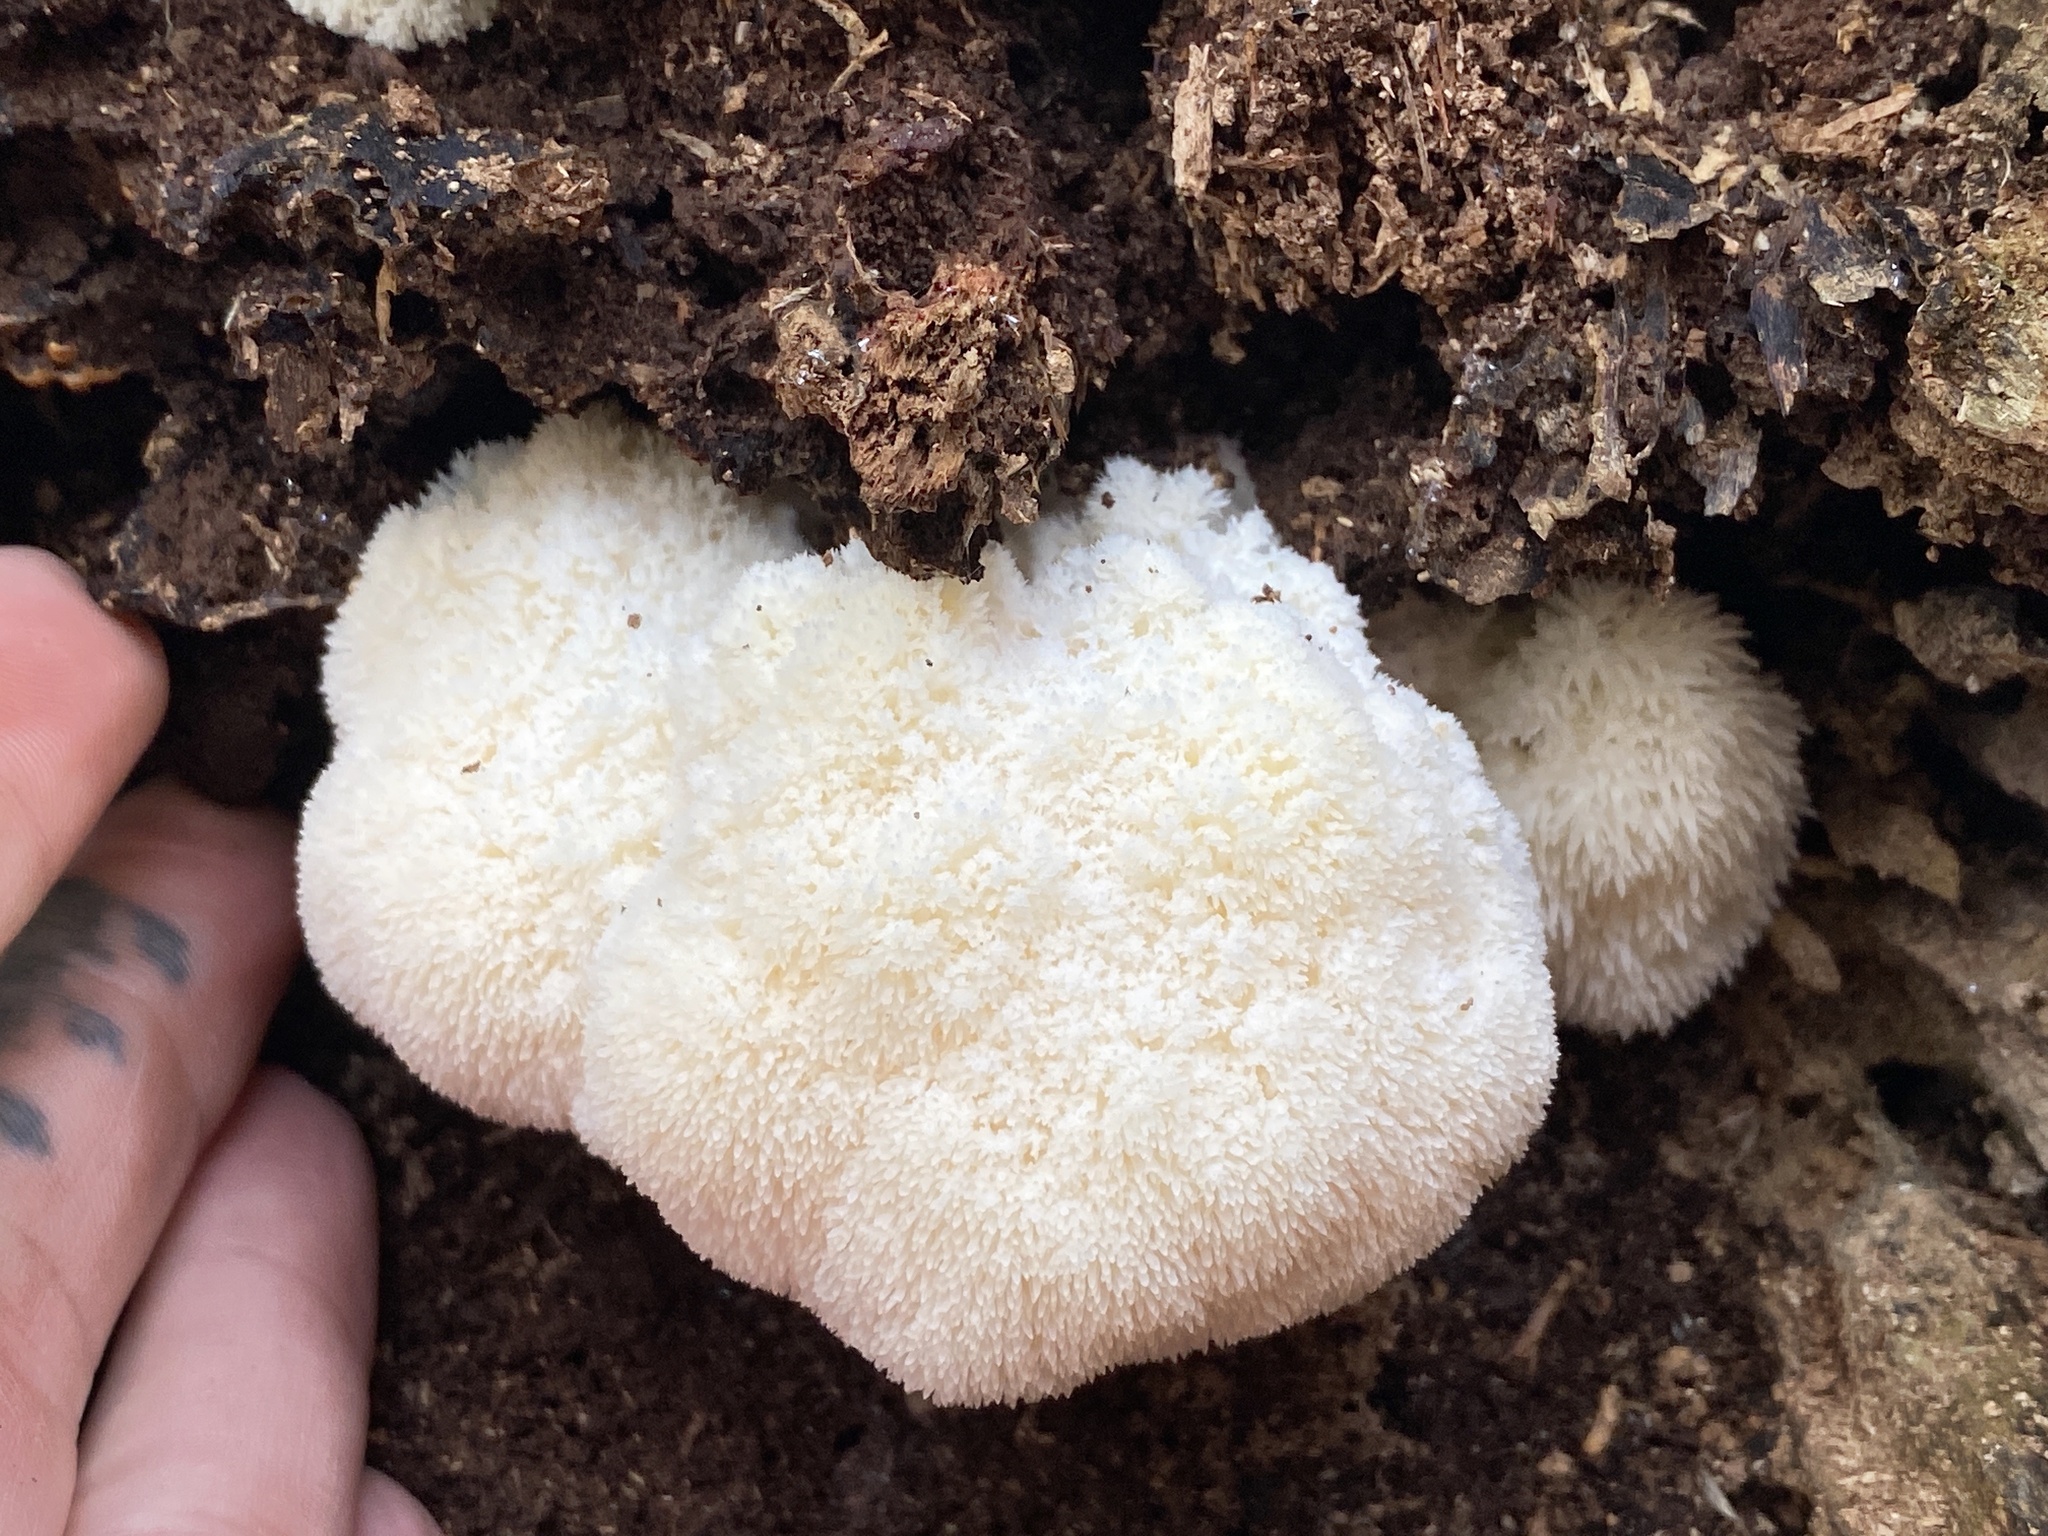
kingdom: Fungi
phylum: Basidiomycota
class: Agaricomycetes
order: Russulales
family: Hericiaceae
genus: Hericium
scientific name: Hericium erinaceus
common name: Bearded tooth
